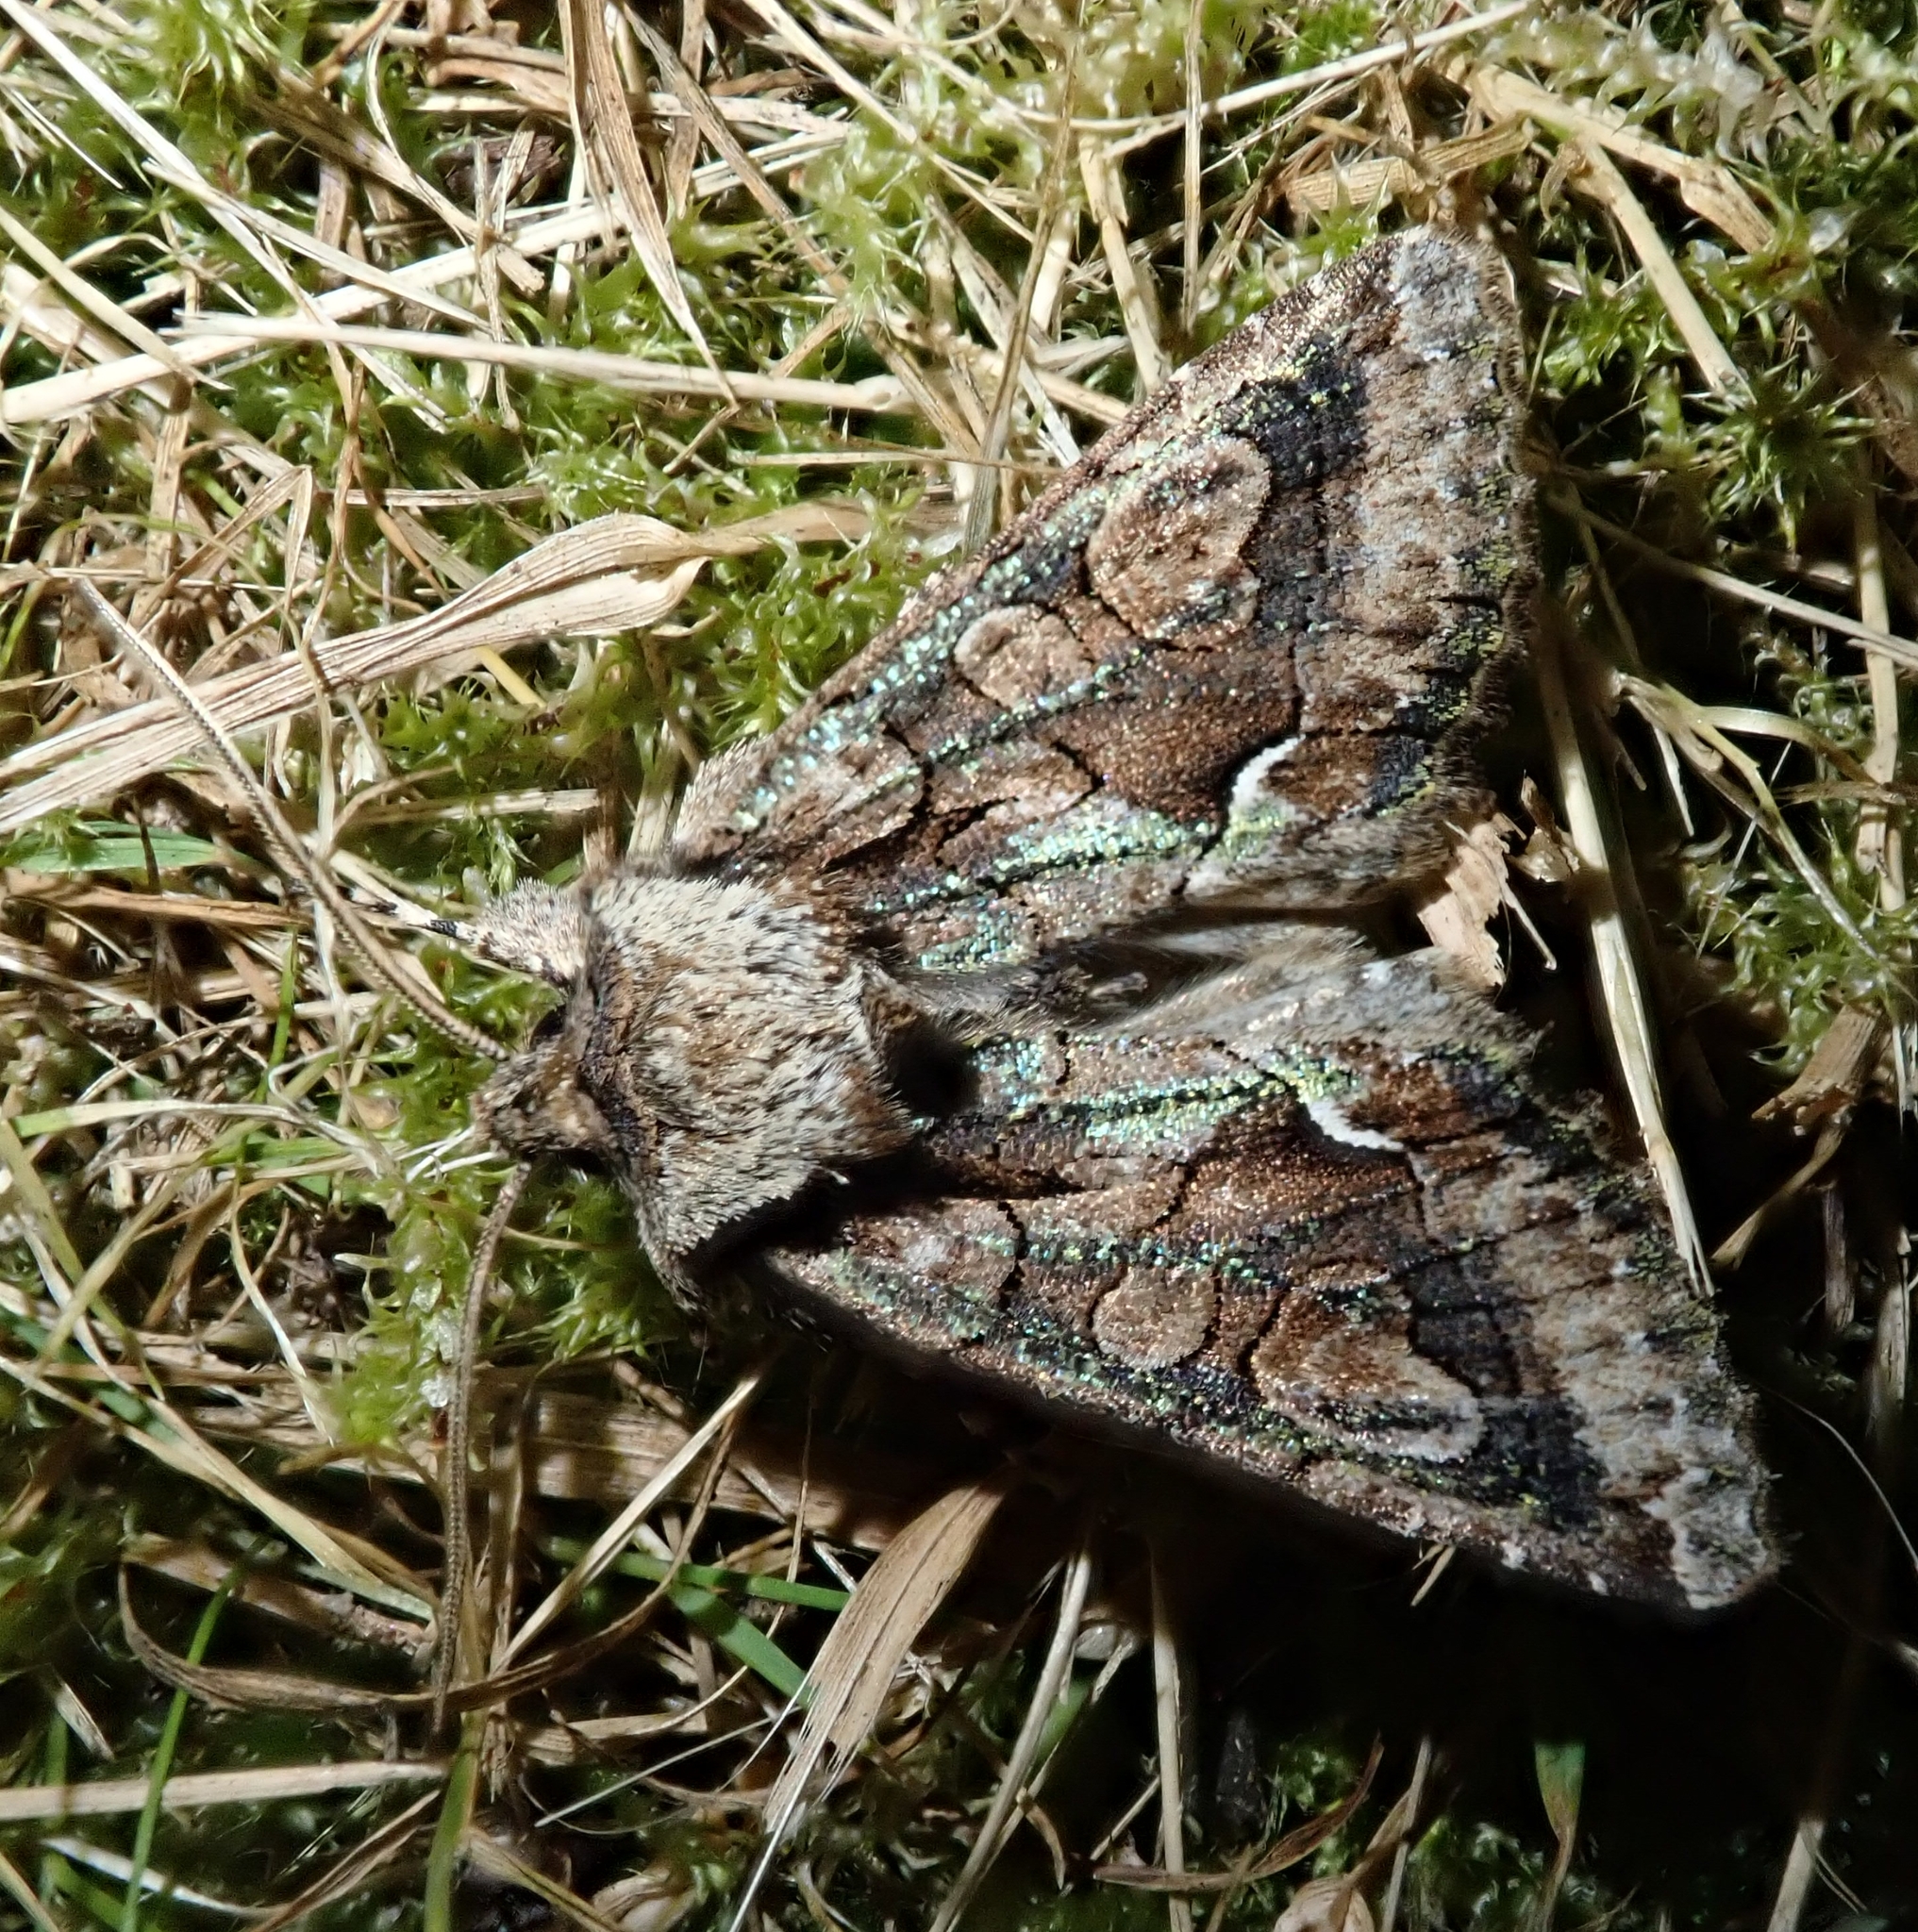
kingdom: Animalia
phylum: Arthropoda
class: Insecta
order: Lepidoptera
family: Noctuidae
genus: Allophyes
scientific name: Allophyes oxyacanthae
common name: Green-brindled crescent
